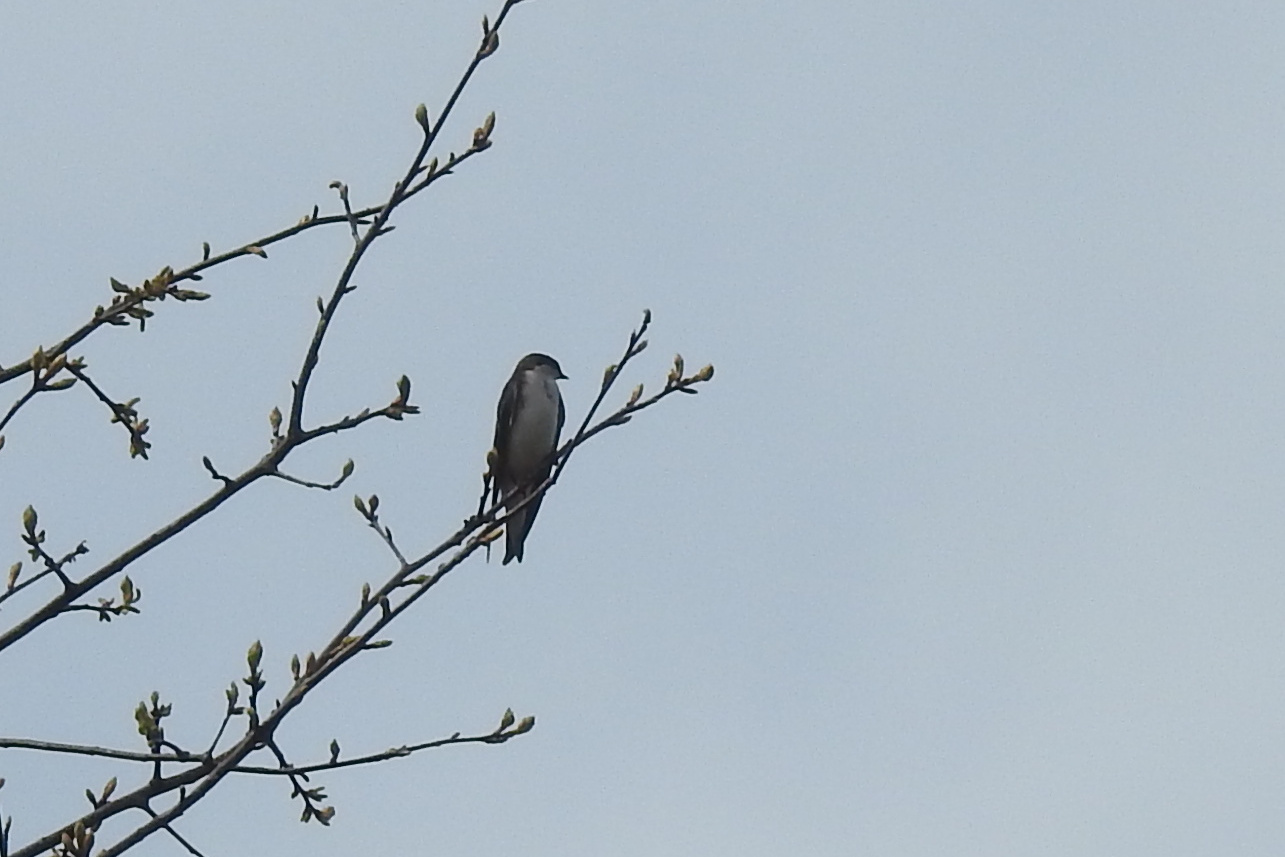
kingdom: Animalia
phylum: Chordata
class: Aves
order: Passeriformes
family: Hirundinidae
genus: Tachycineta
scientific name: Tachycineta bicolor
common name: Tree swallow
